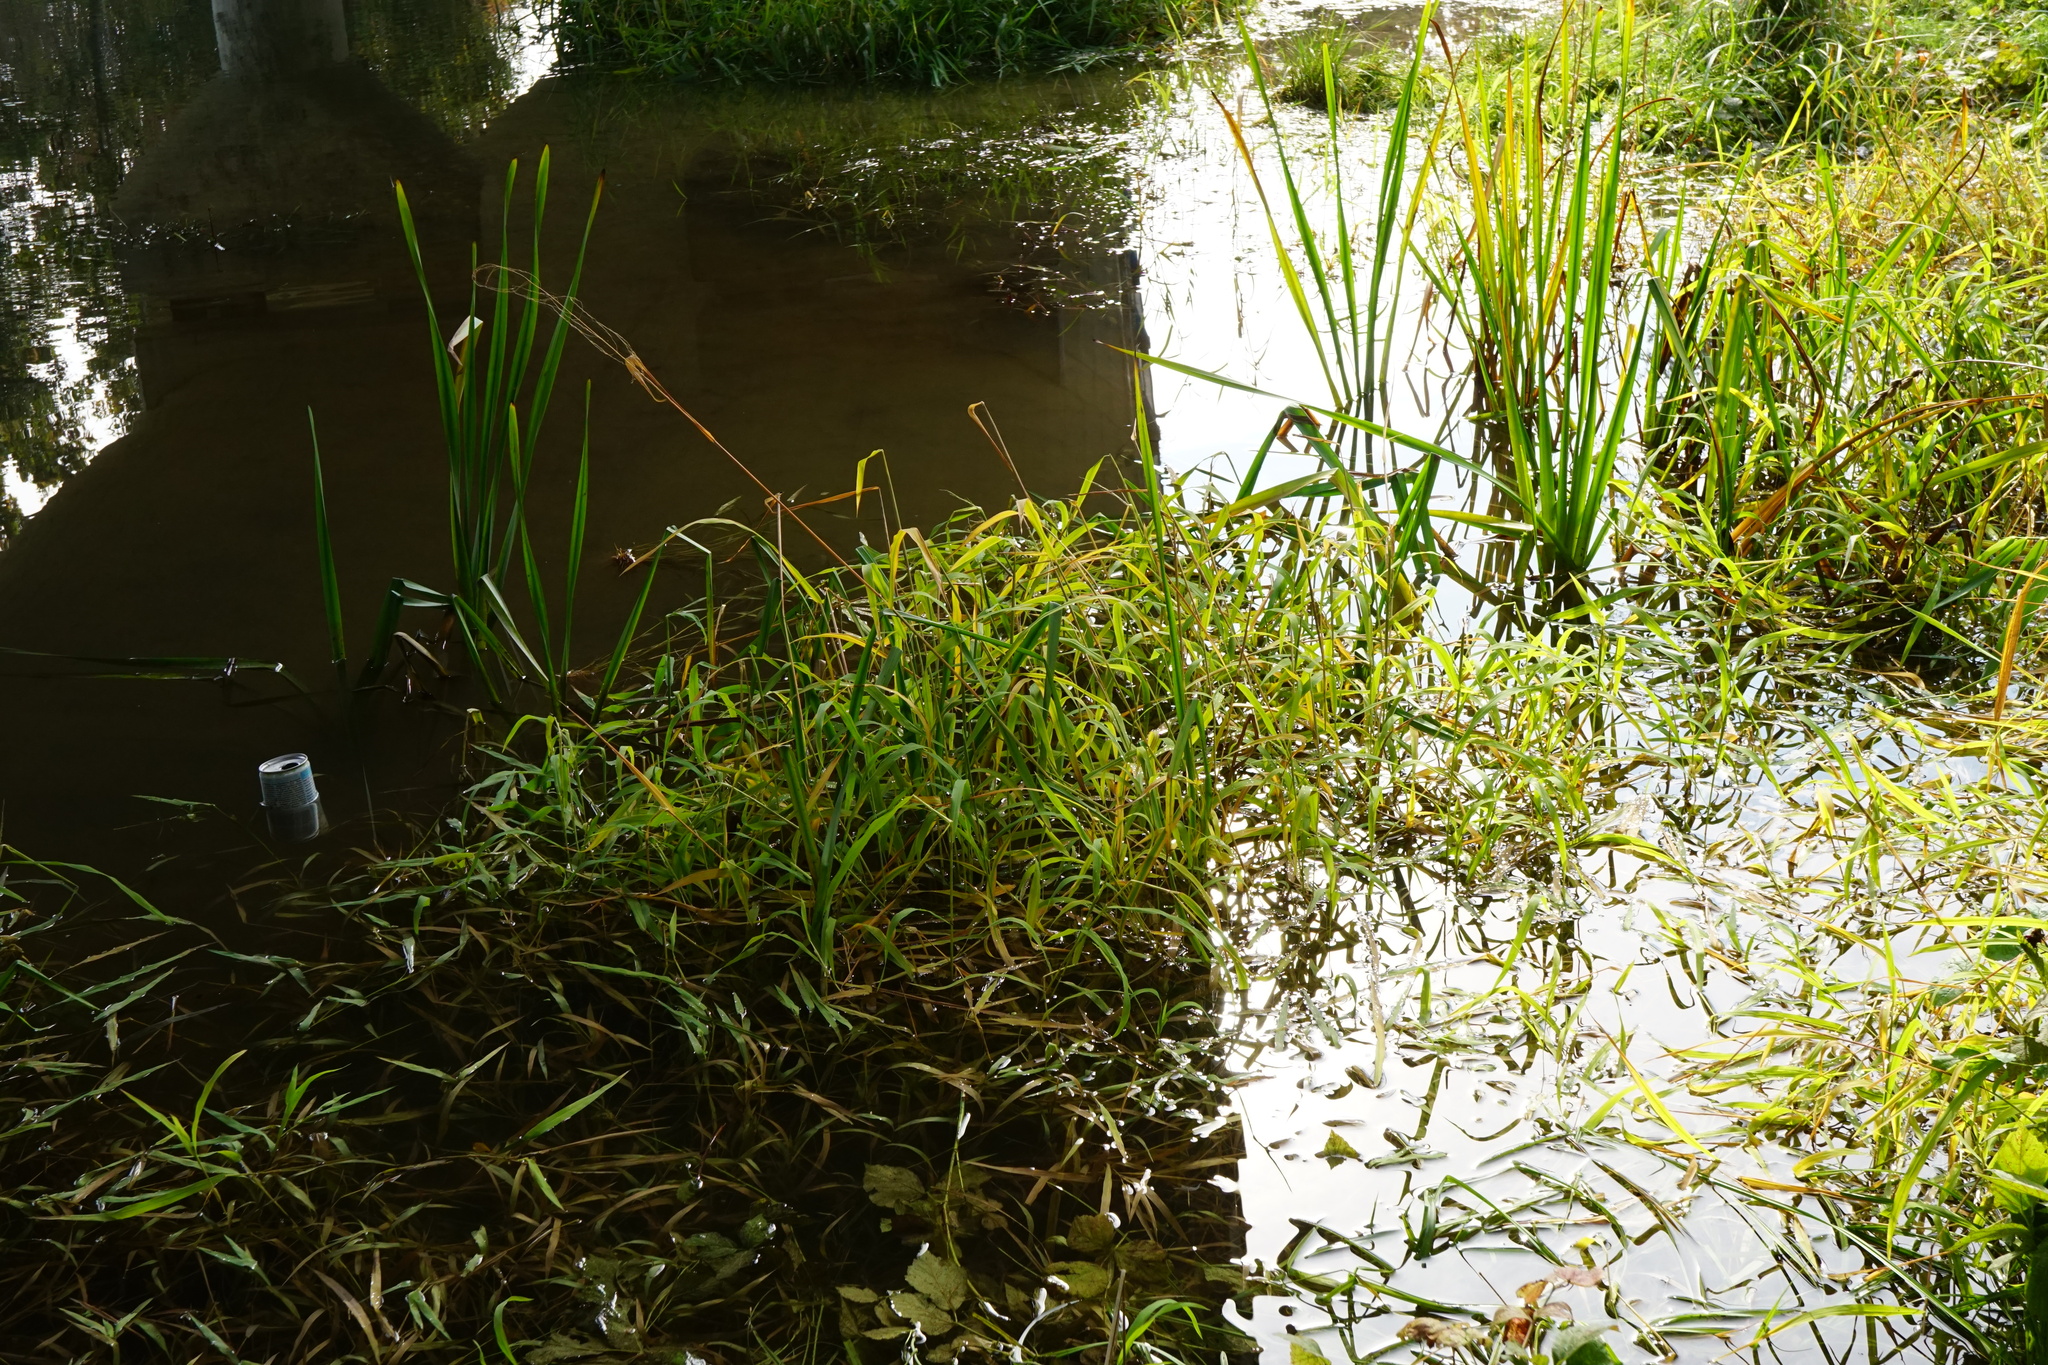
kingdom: Plantae
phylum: Tracheophyta
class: Liliopsida
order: Poales
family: Poaceae
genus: Leersia
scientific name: Leersia oryzoides
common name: Cut-grass
